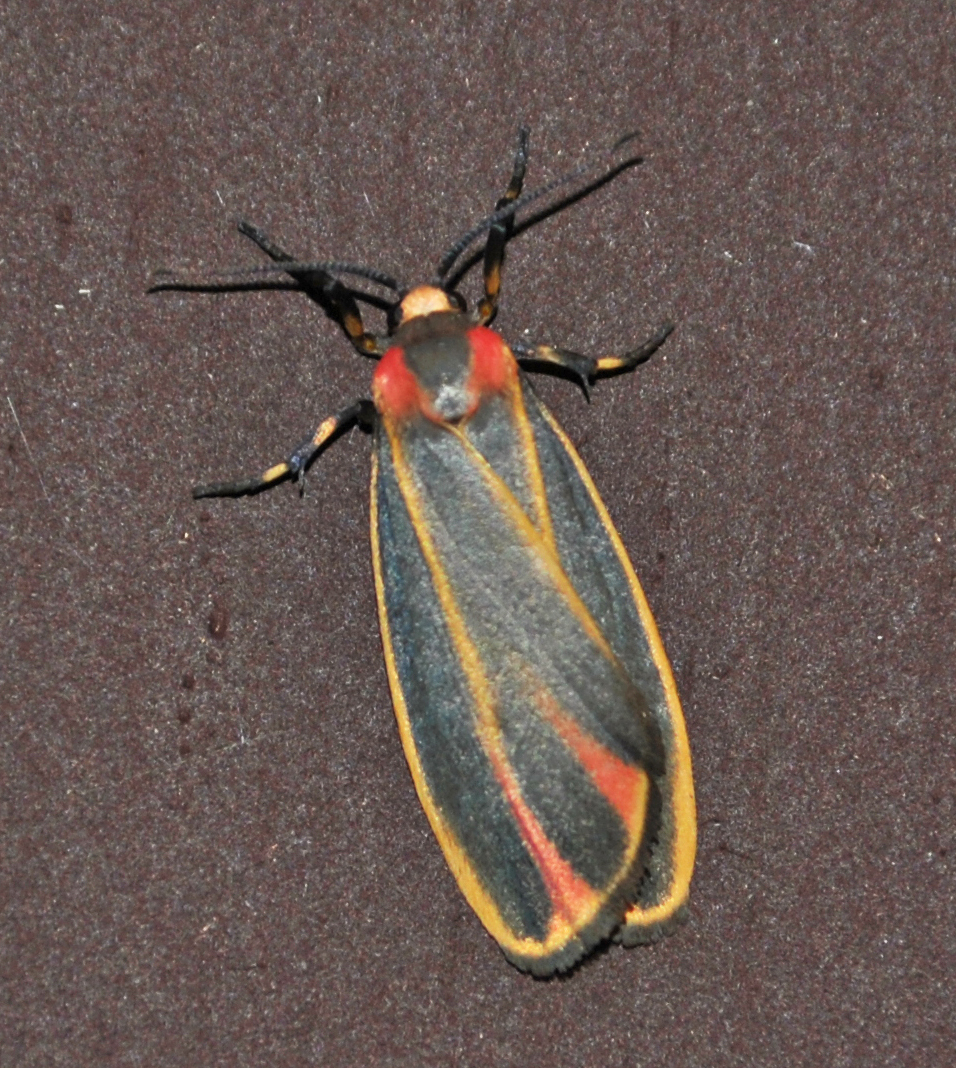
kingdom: Animalia
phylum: Arthropoda
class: Insecta
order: Lepidoptera
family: Erebidae
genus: Hypoprepia
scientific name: Hypoprepia fucosa
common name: Painted lichen moth
